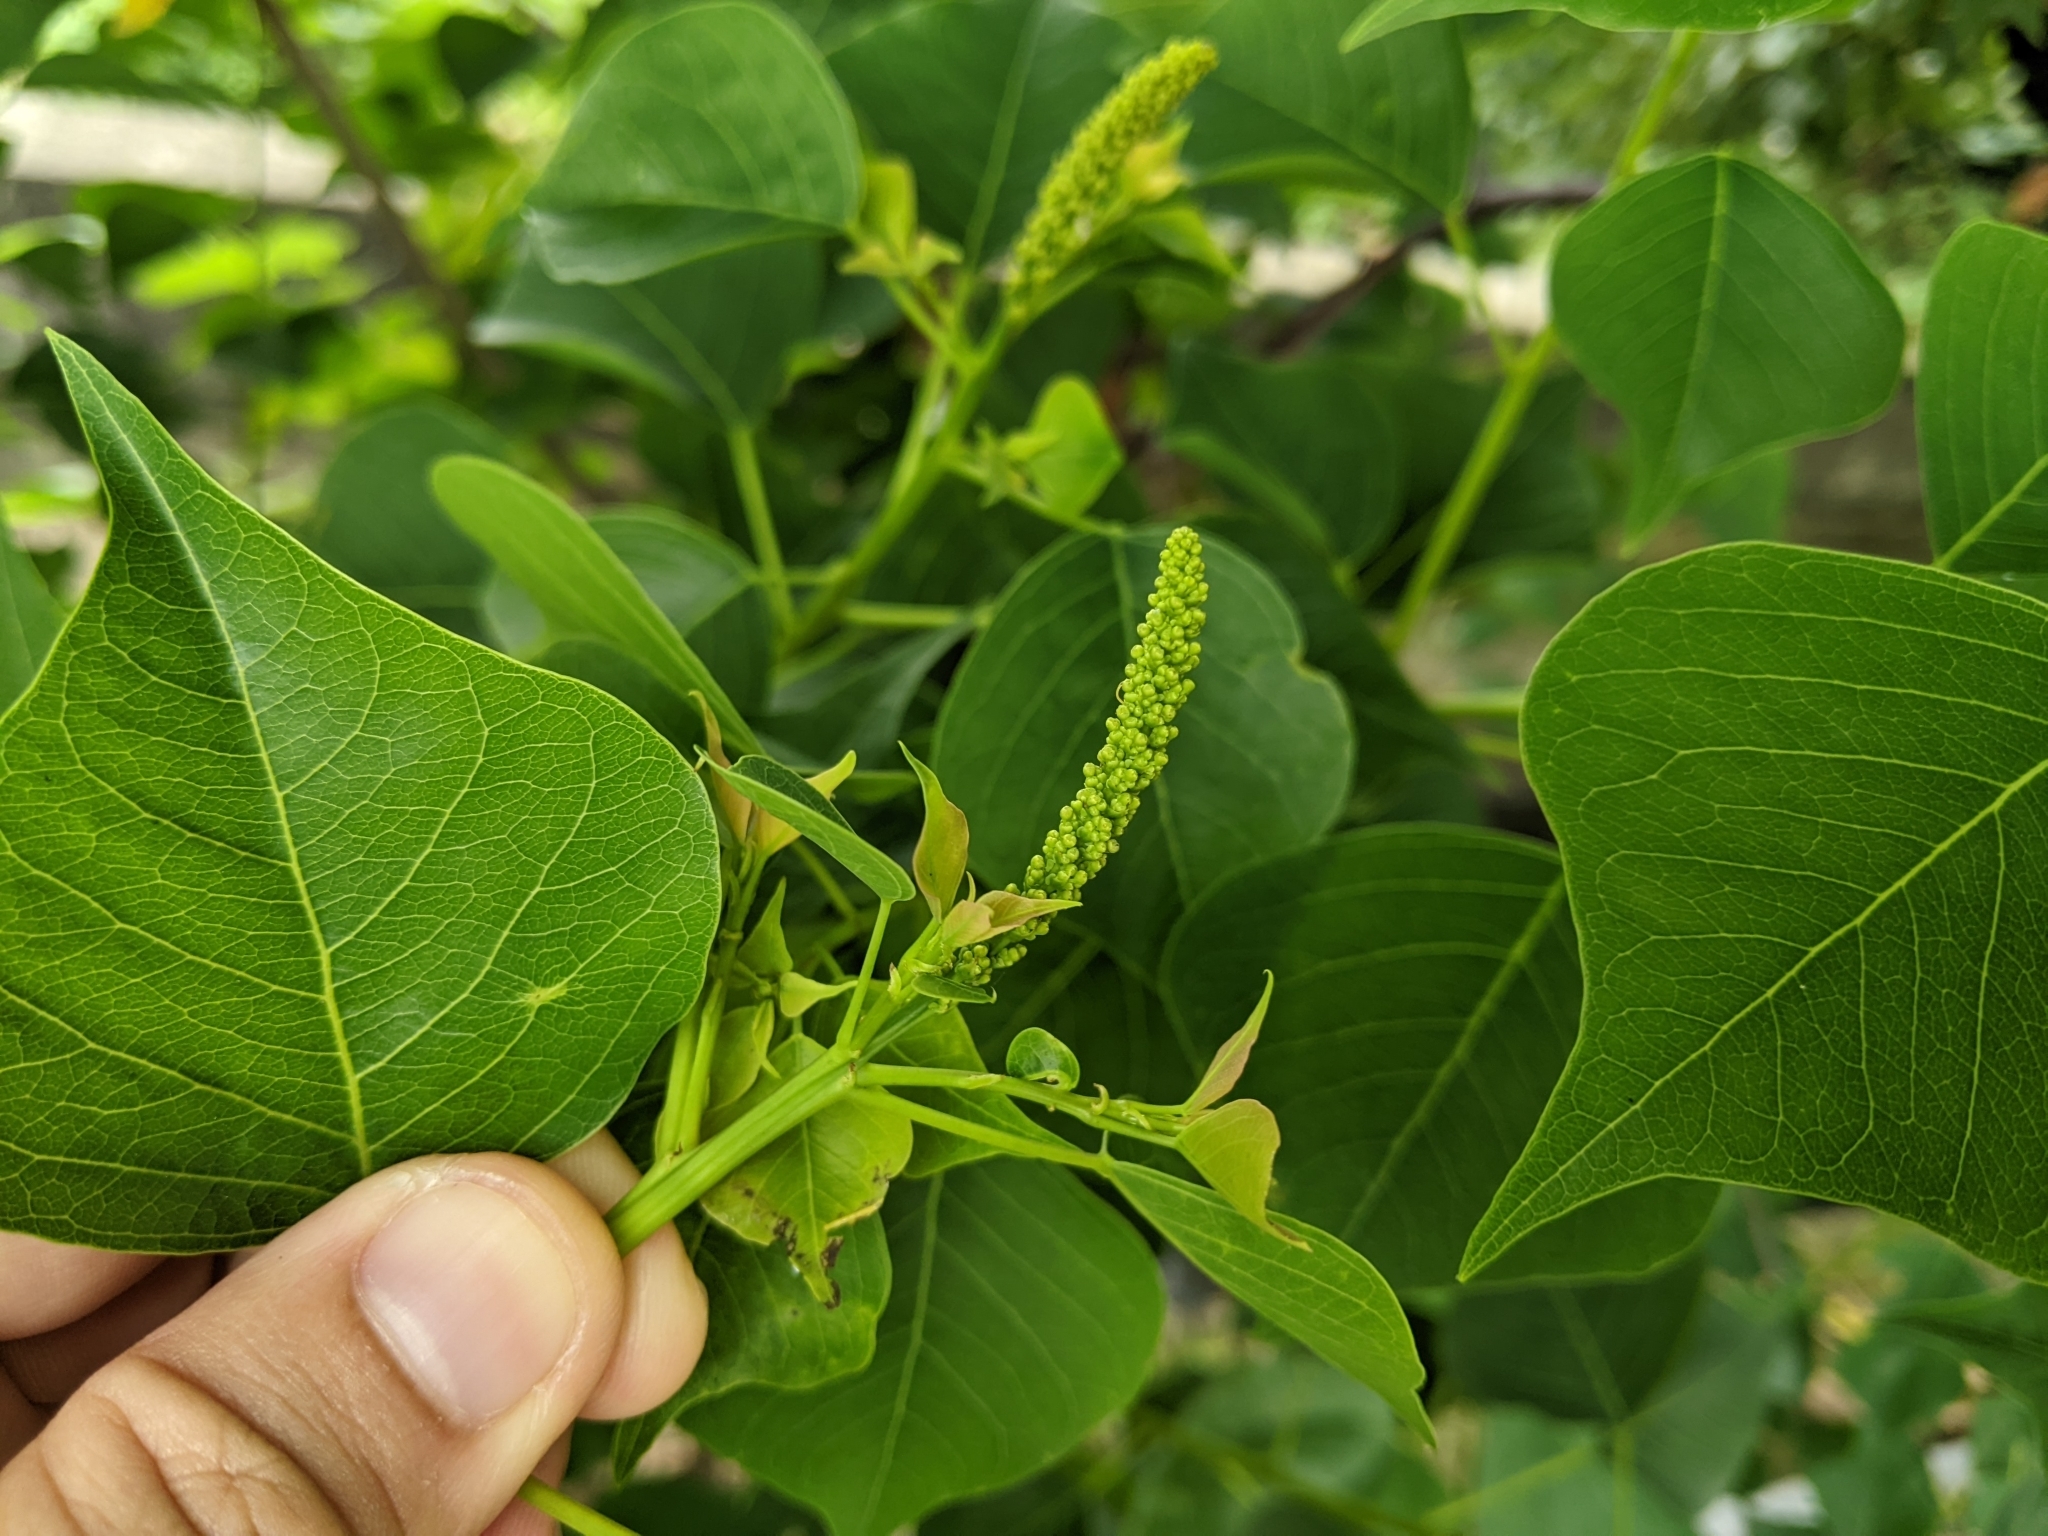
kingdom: Plantae
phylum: Tracheophyta
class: Magnoliopsida
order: Malpighiales
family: Euphorbiaceae
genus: Triadica
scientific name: Triadica sebifera
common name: Chinese tallow
